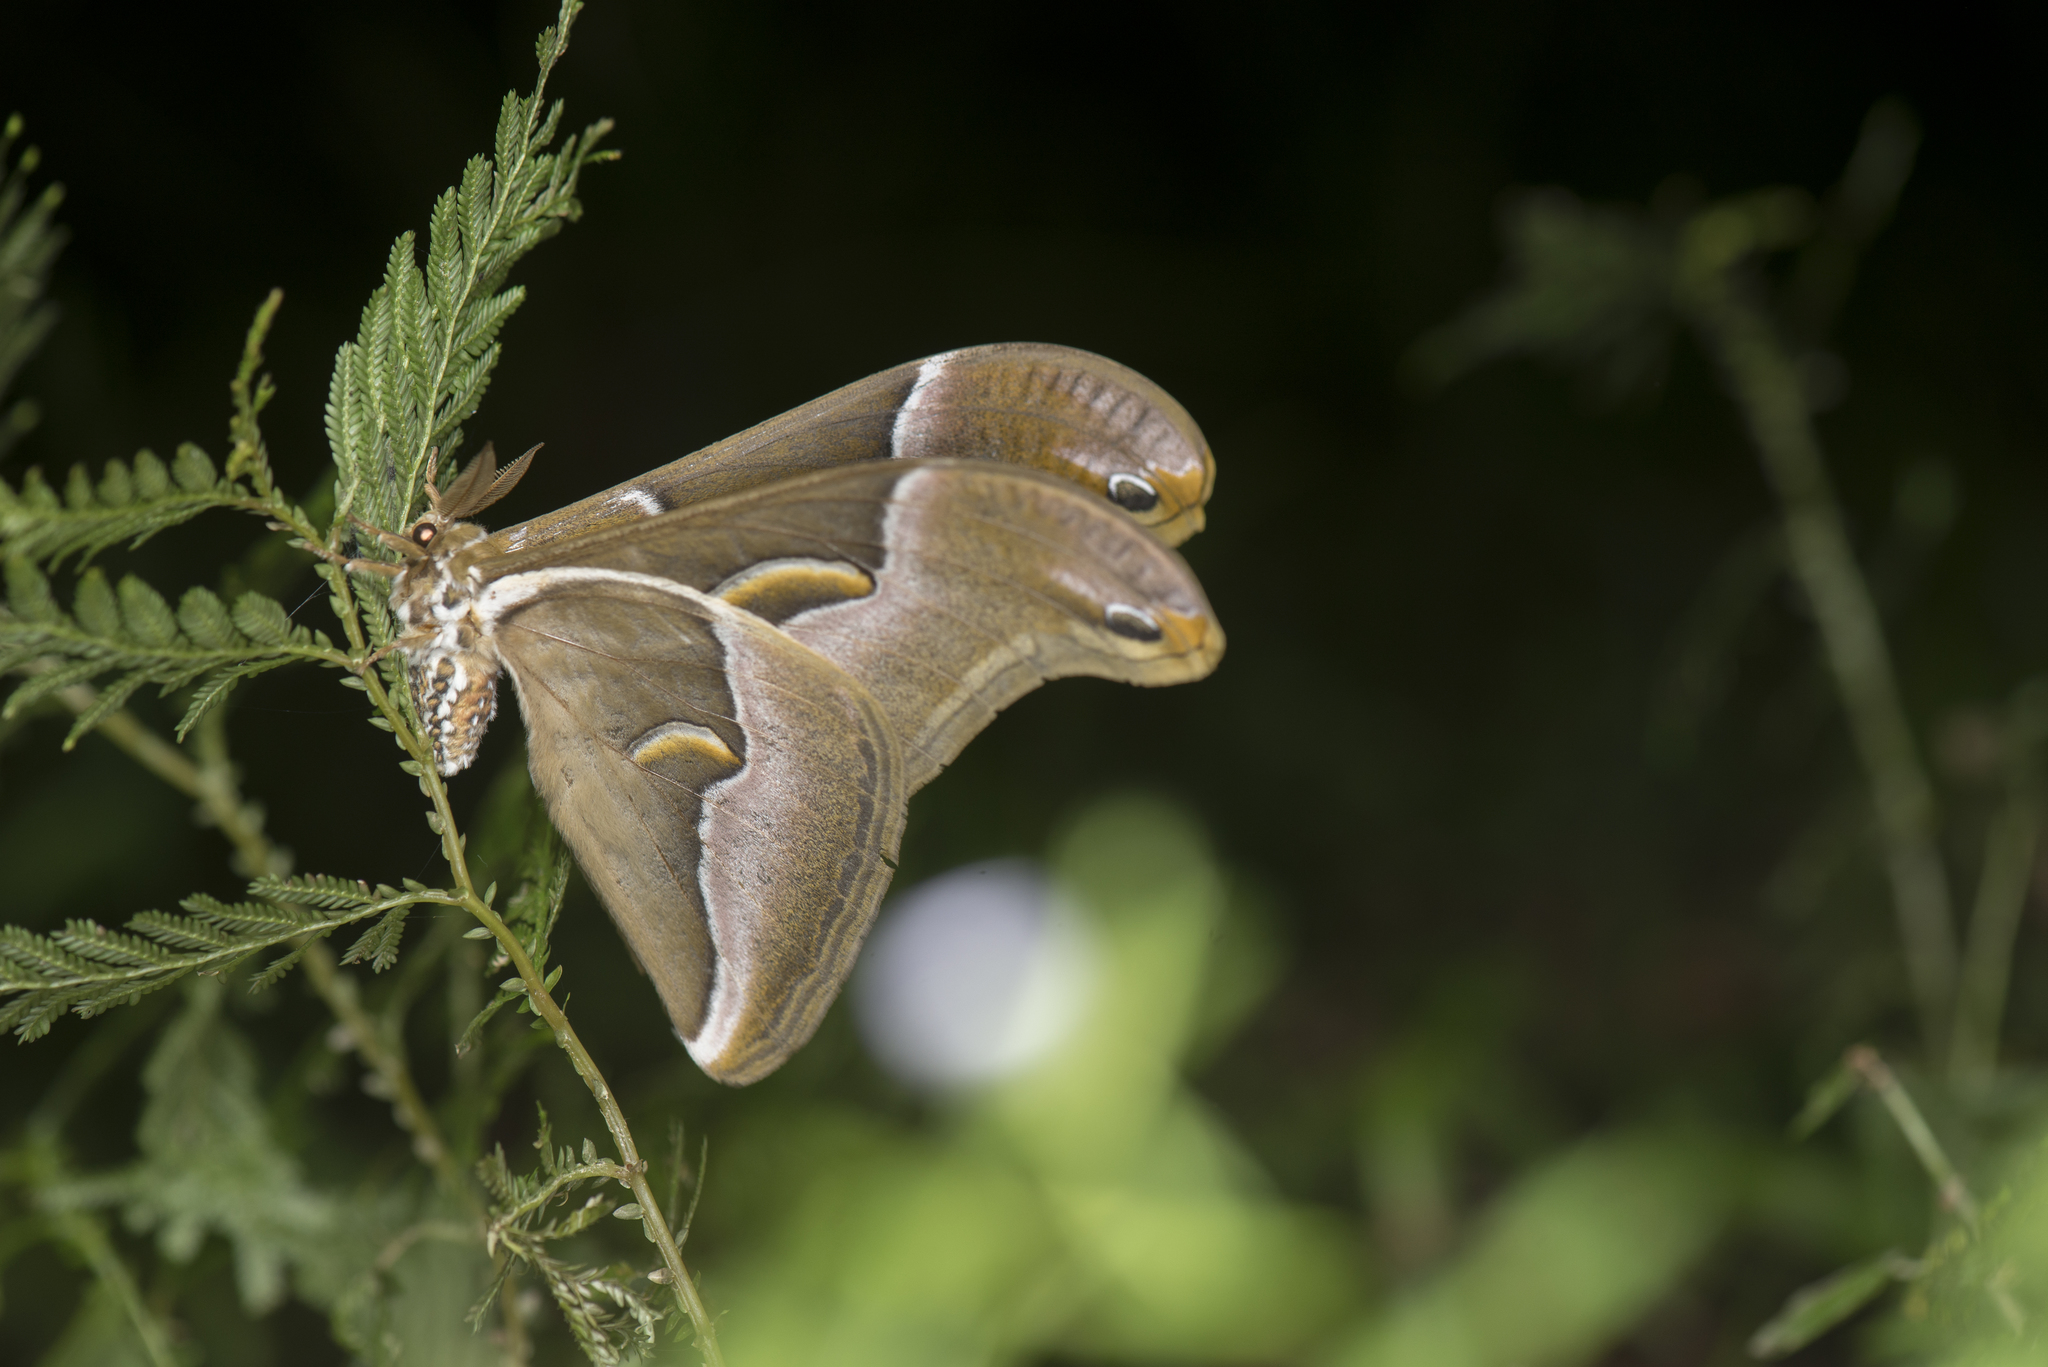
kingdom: Animalia
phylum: Arthropoda
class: Insecta
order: Lepidoptera
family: Saturniidae
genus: Samia
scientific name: Samia wangi
